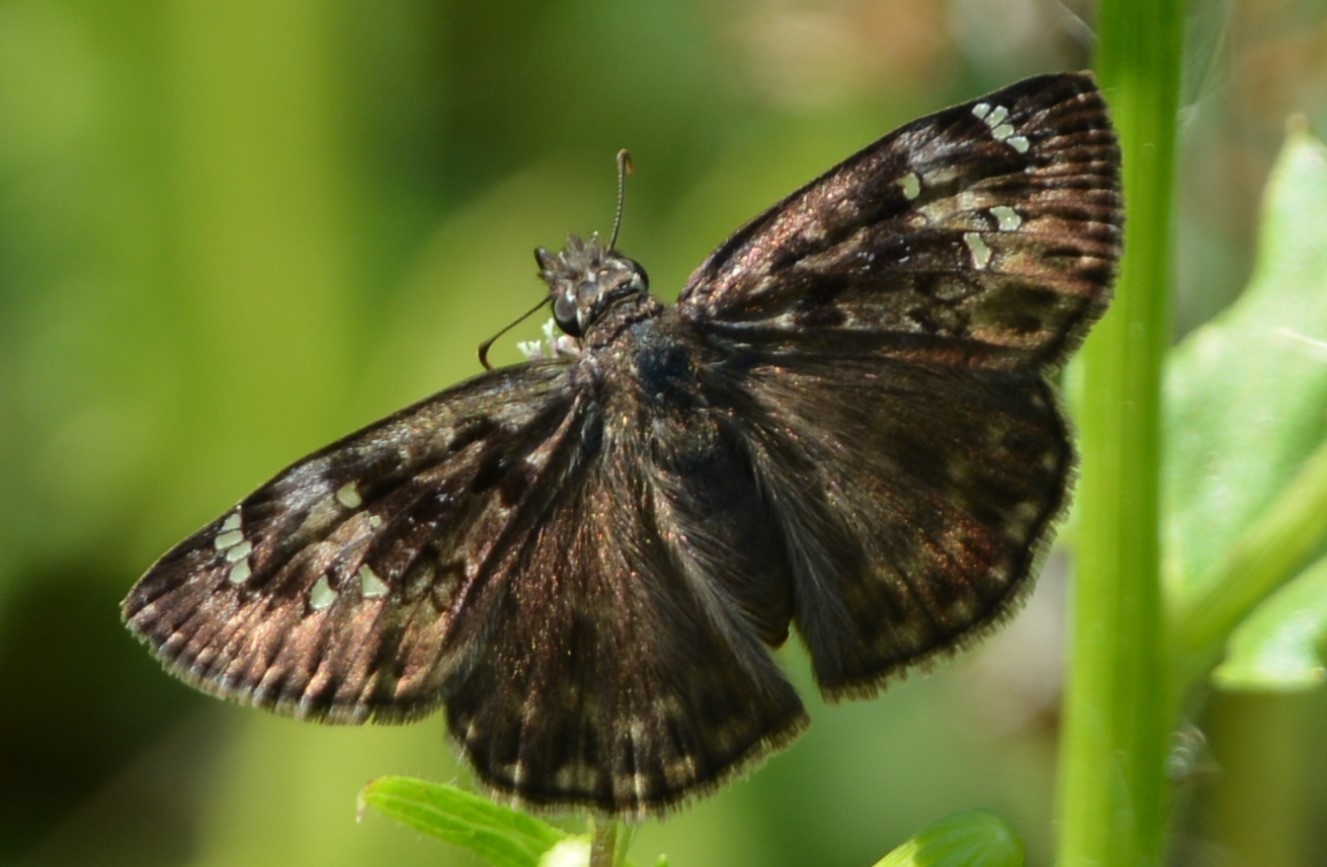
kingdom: Animalia
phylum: Arthropoda
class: Insecta
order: Lepidoptera
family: Hesperiidae
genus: Erynnis
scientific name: Erynnis horatius
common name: Horace's duskywing
